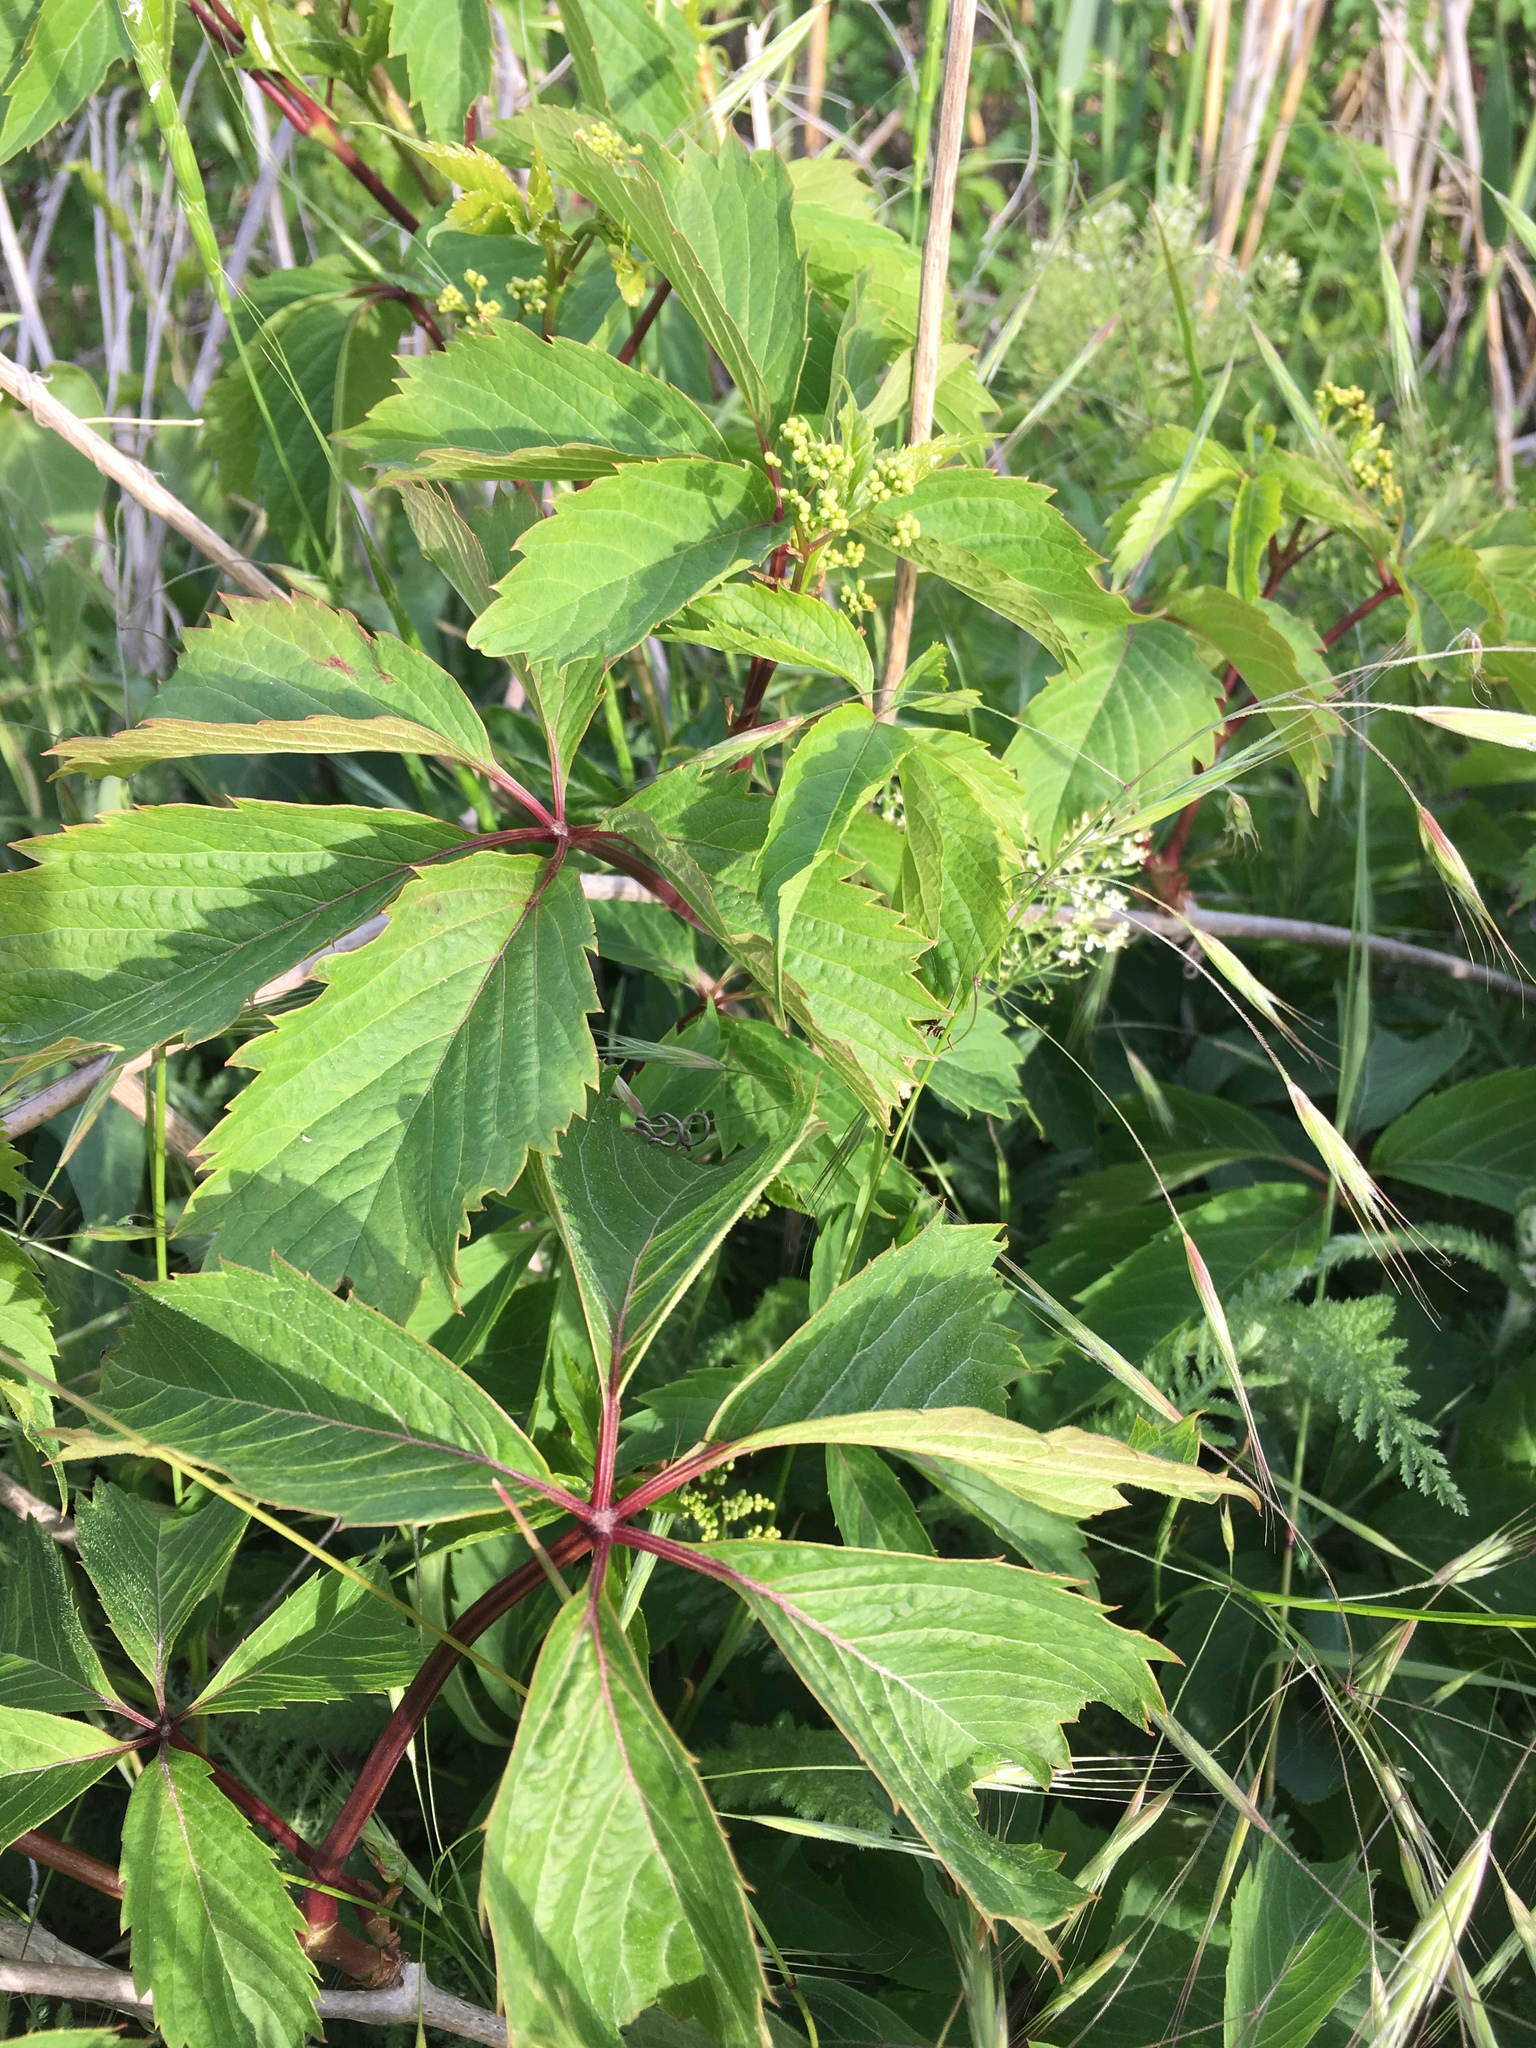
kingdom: Plantae
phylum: Tracheophyta
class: Magnoliopsida
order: Vitales
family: Vitaceae
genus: Parthenocissus
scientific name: Parthenocissus quinquefolia
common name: Virginia-creeper
